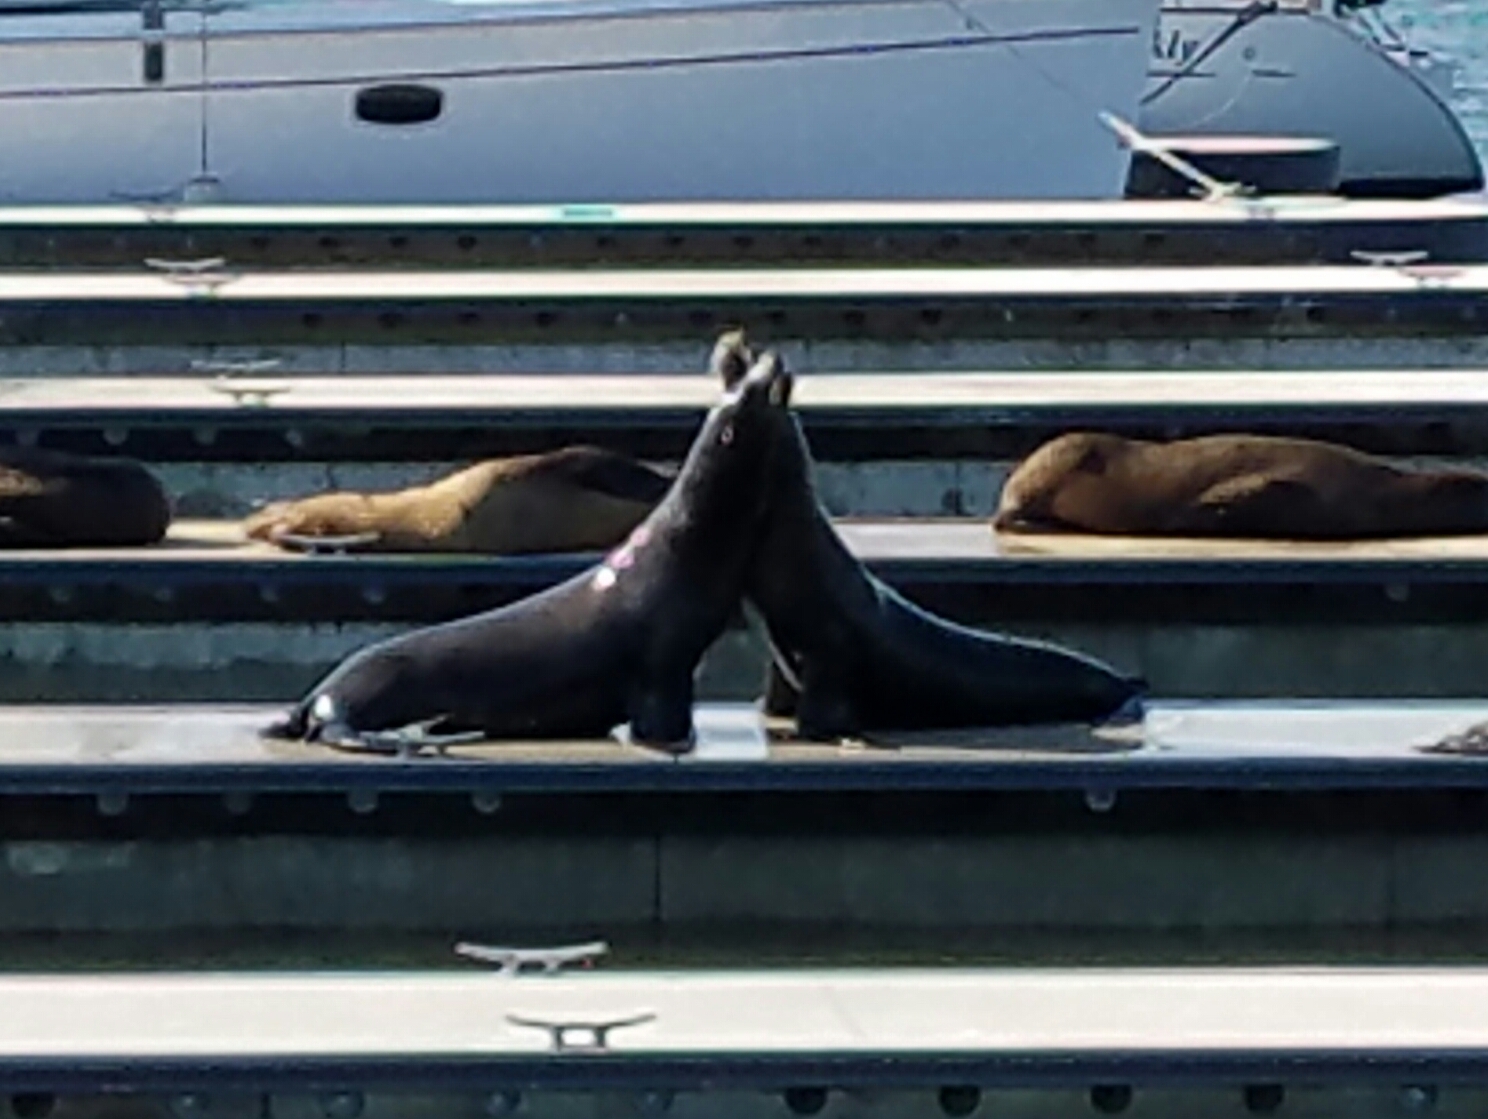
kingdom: Animalia
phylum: Chordata
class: Mammalia
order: Carnivora
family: Otariidae
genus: Zalophus
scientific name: Zalophus californianus
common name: California sea lion
